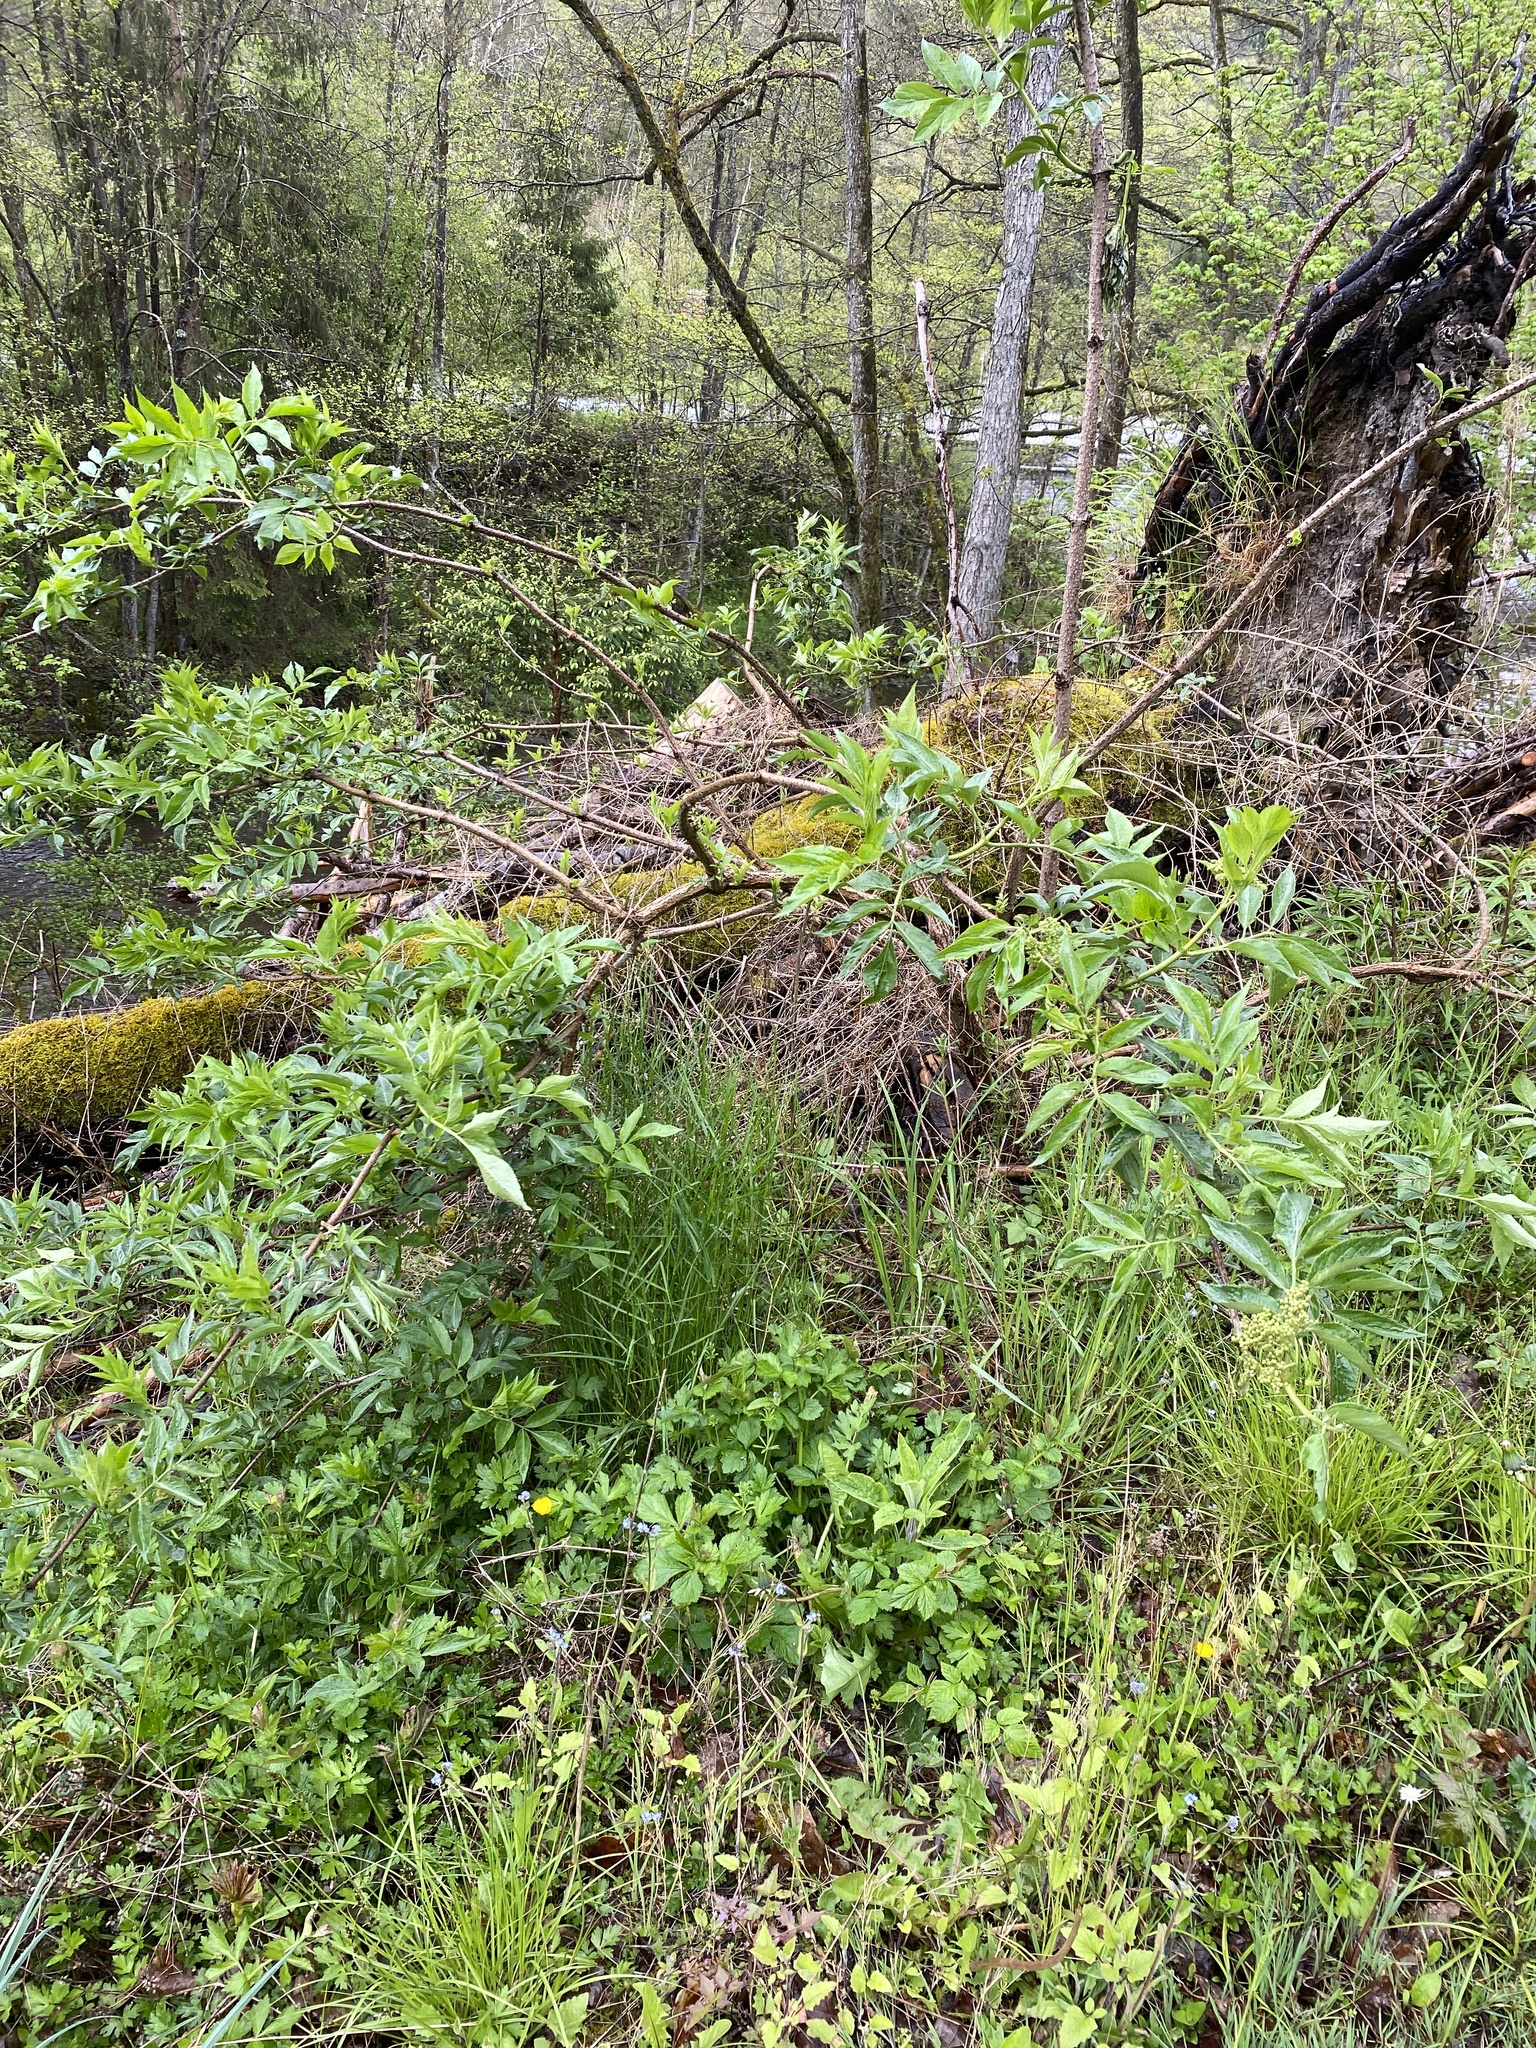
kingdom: Plantae
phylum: Tracheophyta
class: Magnoliopsida
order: Dipsacales
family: Viburnaceae
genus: Sambucus
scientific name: Sambucus nigra
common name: Elder
